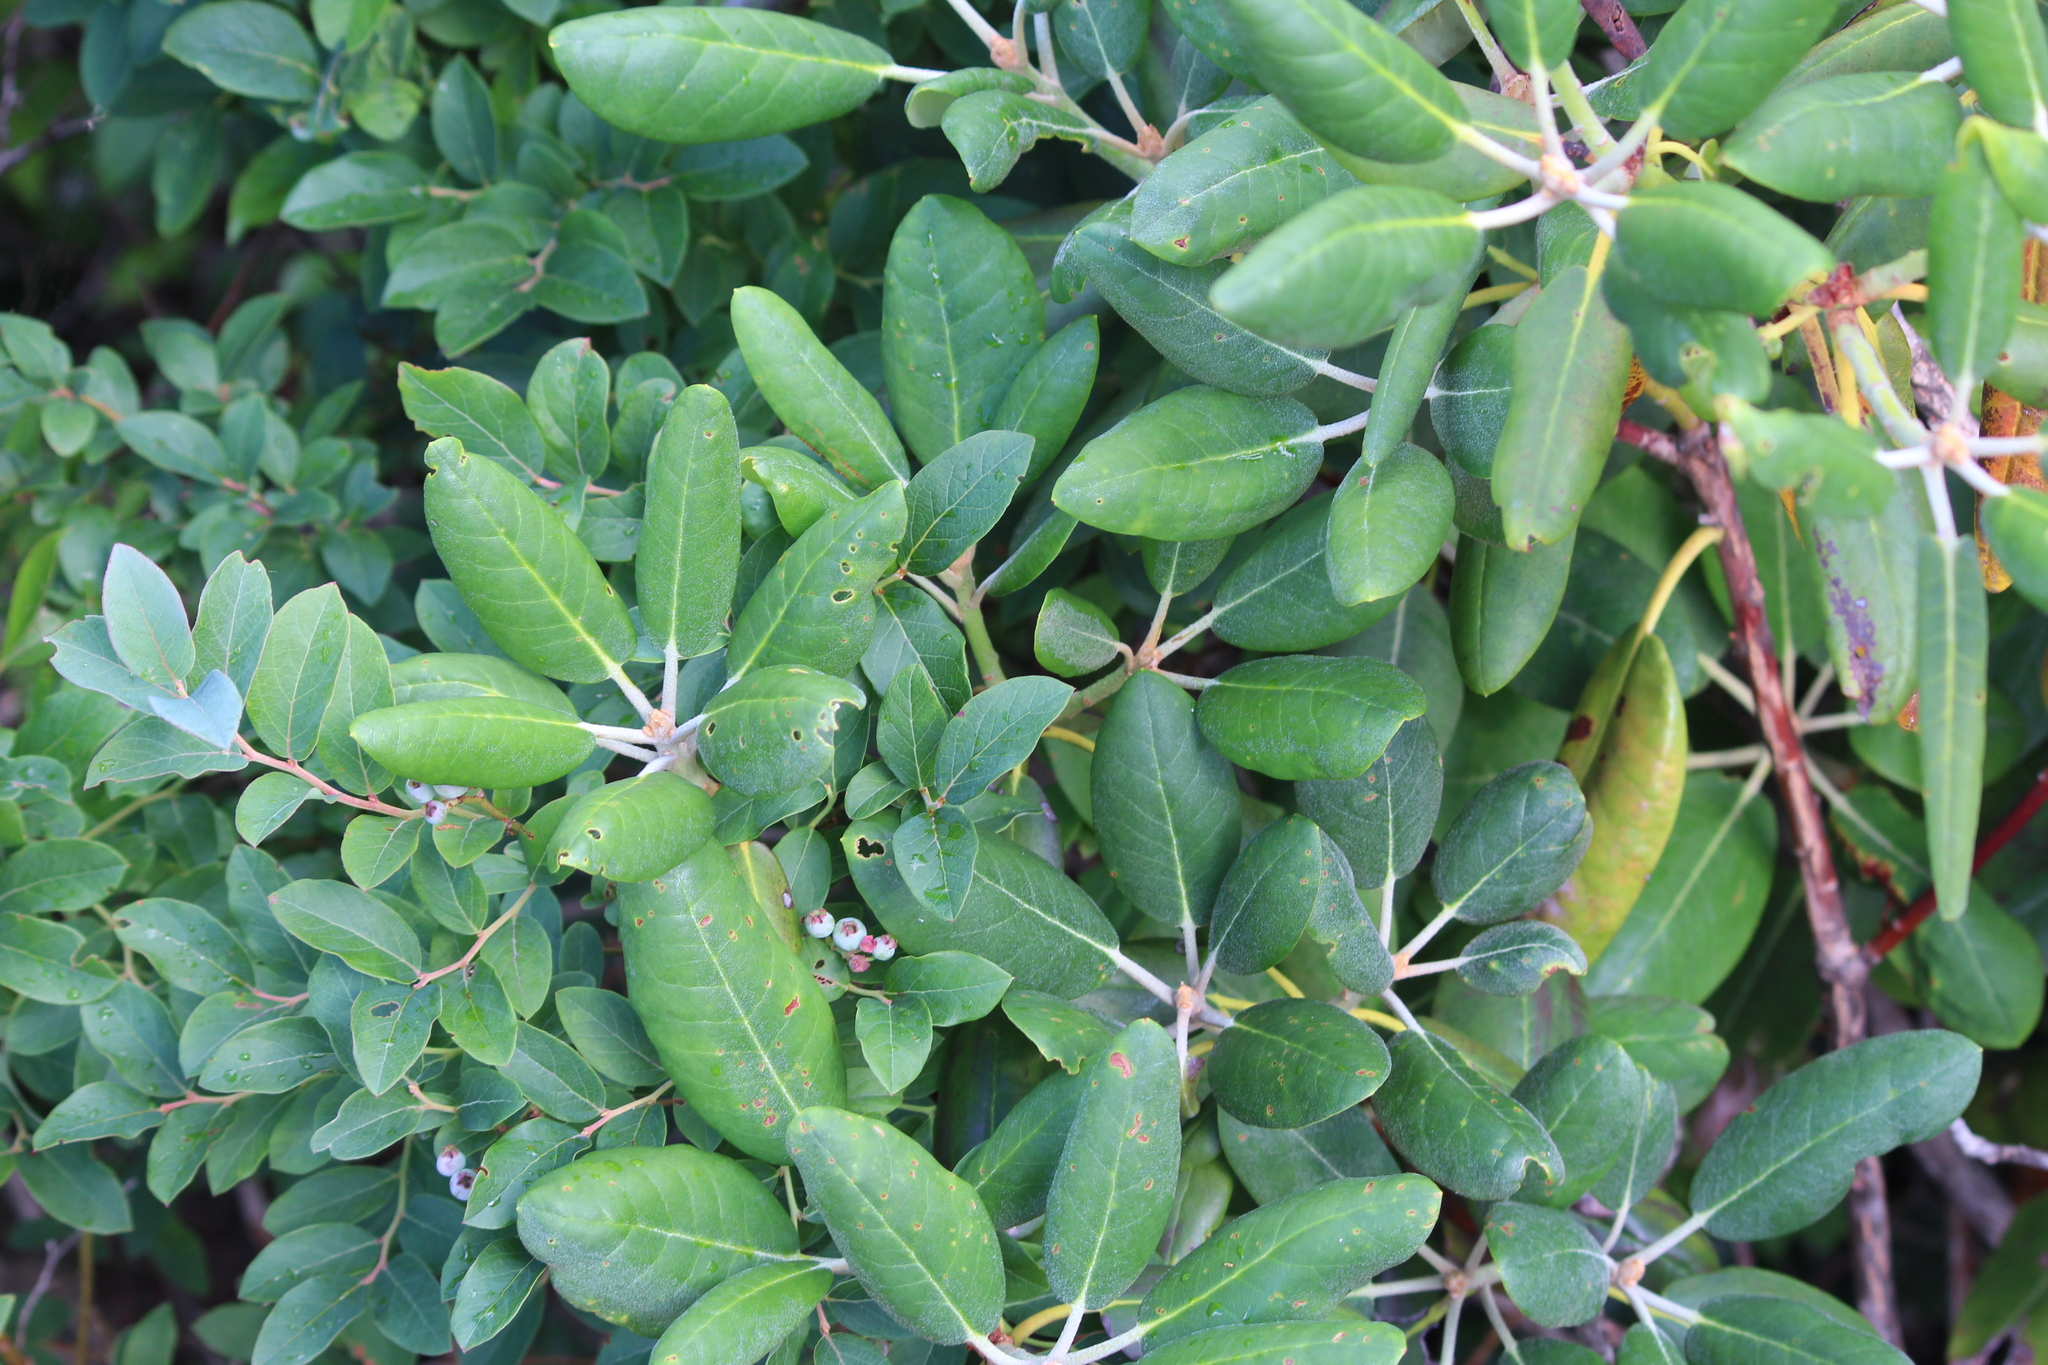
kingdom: Plantae
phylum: Tracheophyta
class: Magnoliopsida
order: Ericales
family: Ericaceae
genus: Rhododendron
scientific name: Rhododendron catawbiense
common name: Catawba rhododendron
